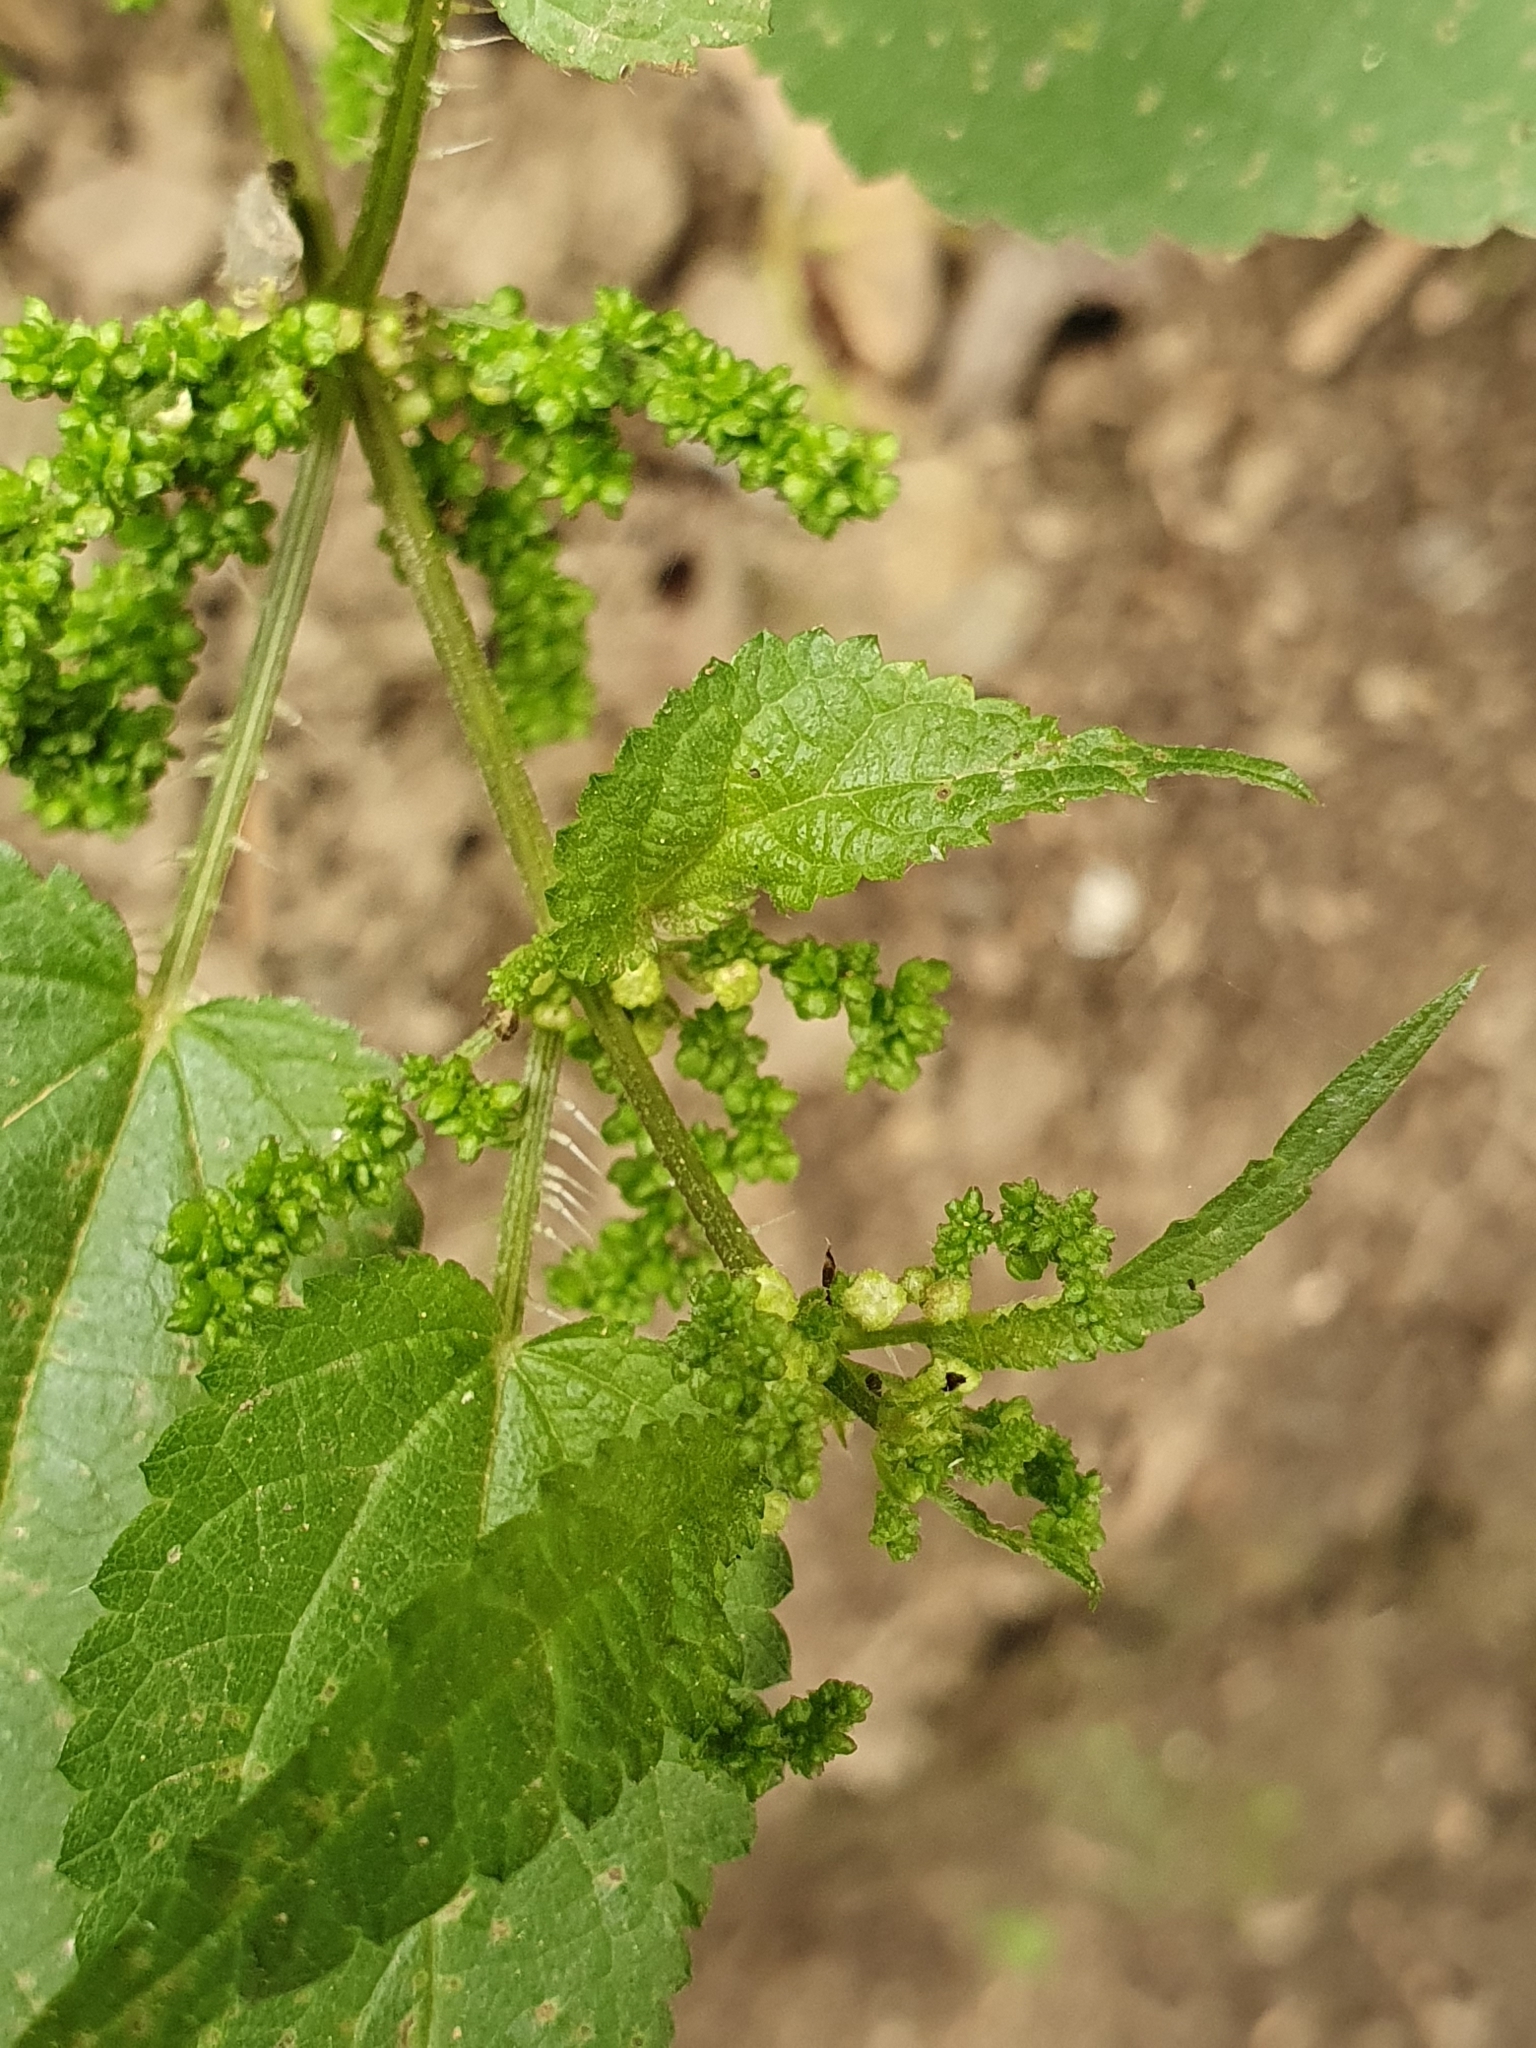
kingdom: Plantae
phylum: Tracheophyta
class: Magnoliopsida
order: Rosales
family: Urticaceae
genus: Urtica
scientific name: Urtica dioica
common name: Common nettle
